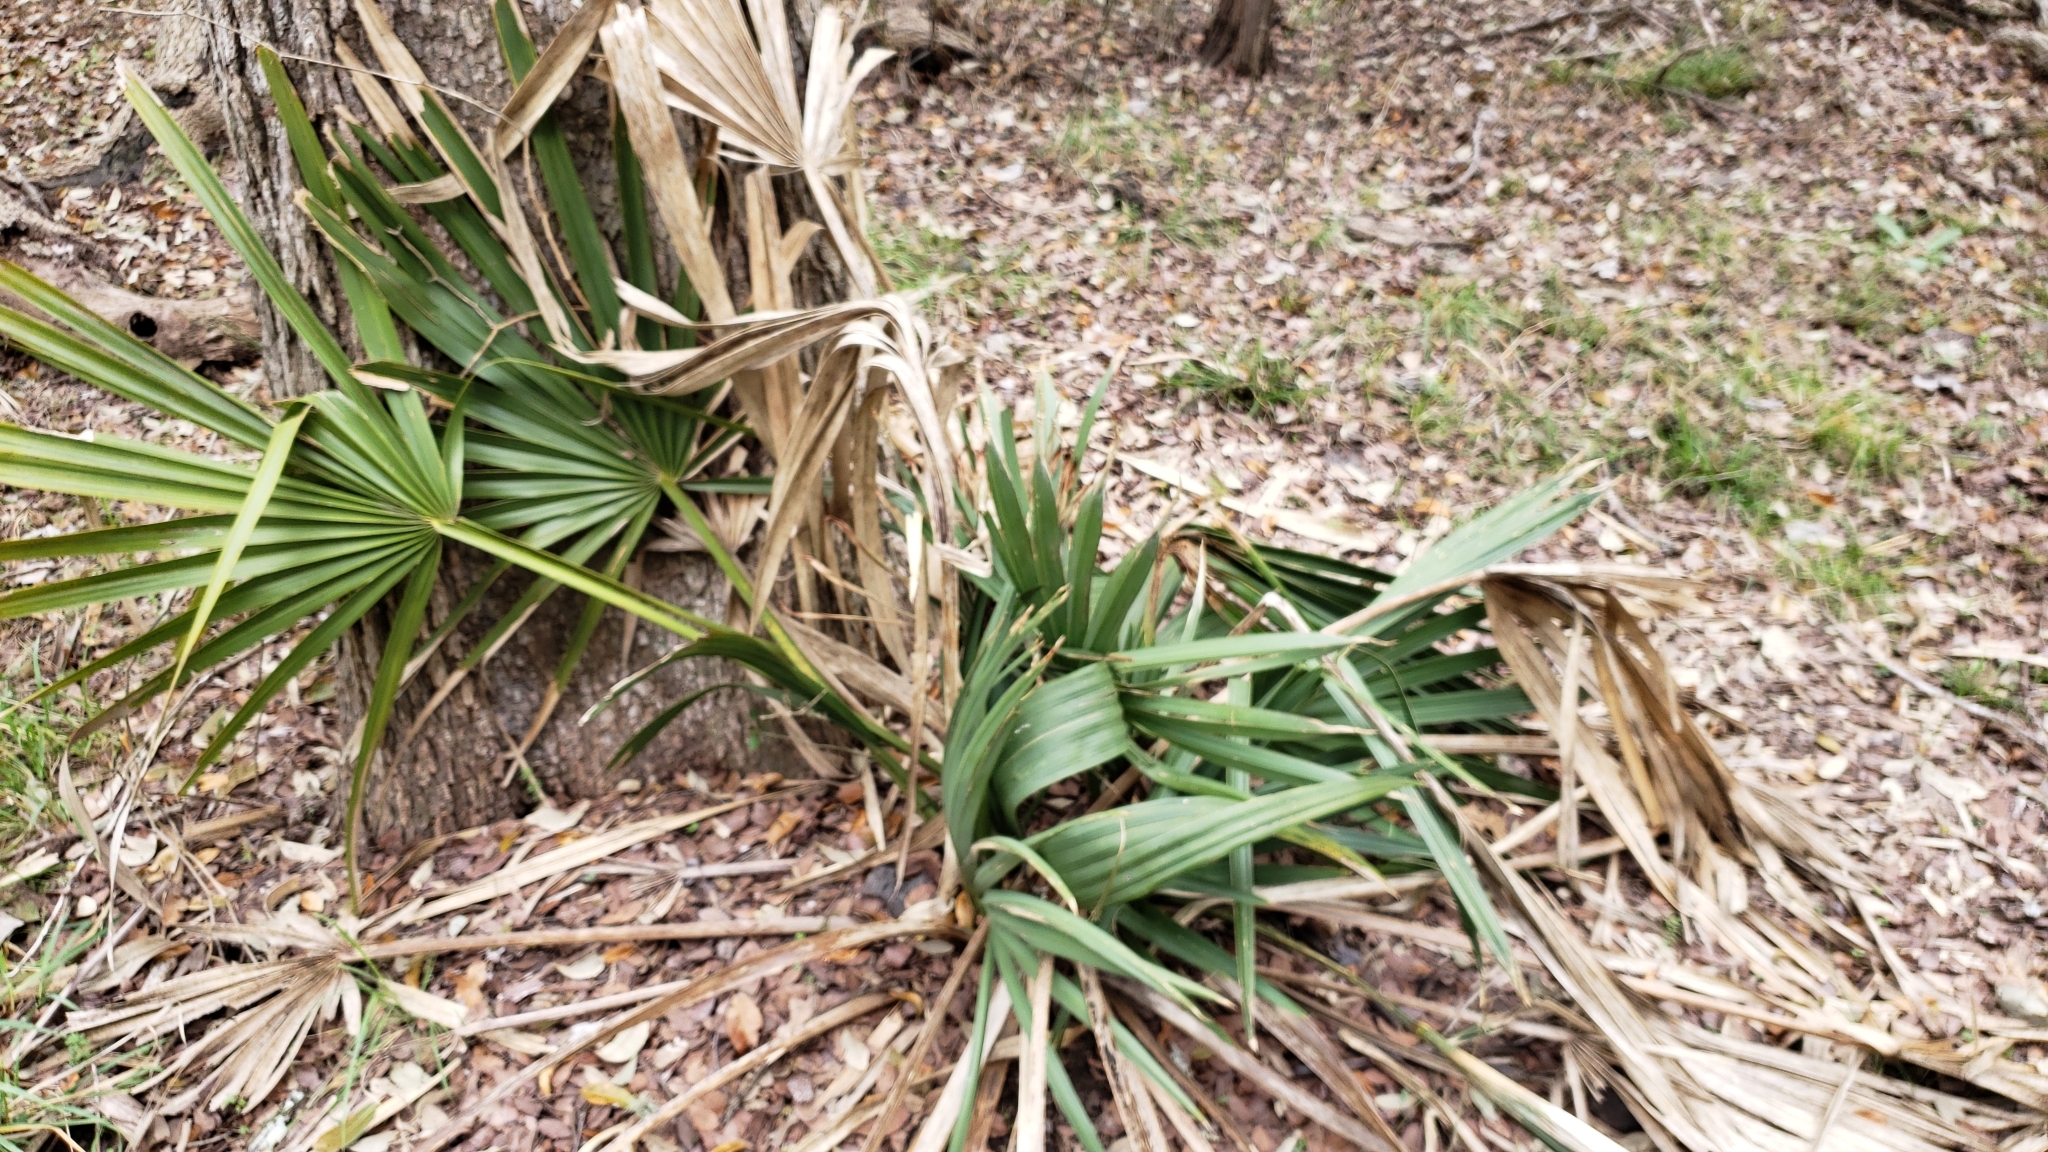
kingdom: Plantae
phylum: Tracheophyta
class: Liliopsida
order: Arecales
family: Arecaceae
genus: Sabal
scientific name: Sabal minor
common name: Dwarf palmetto
